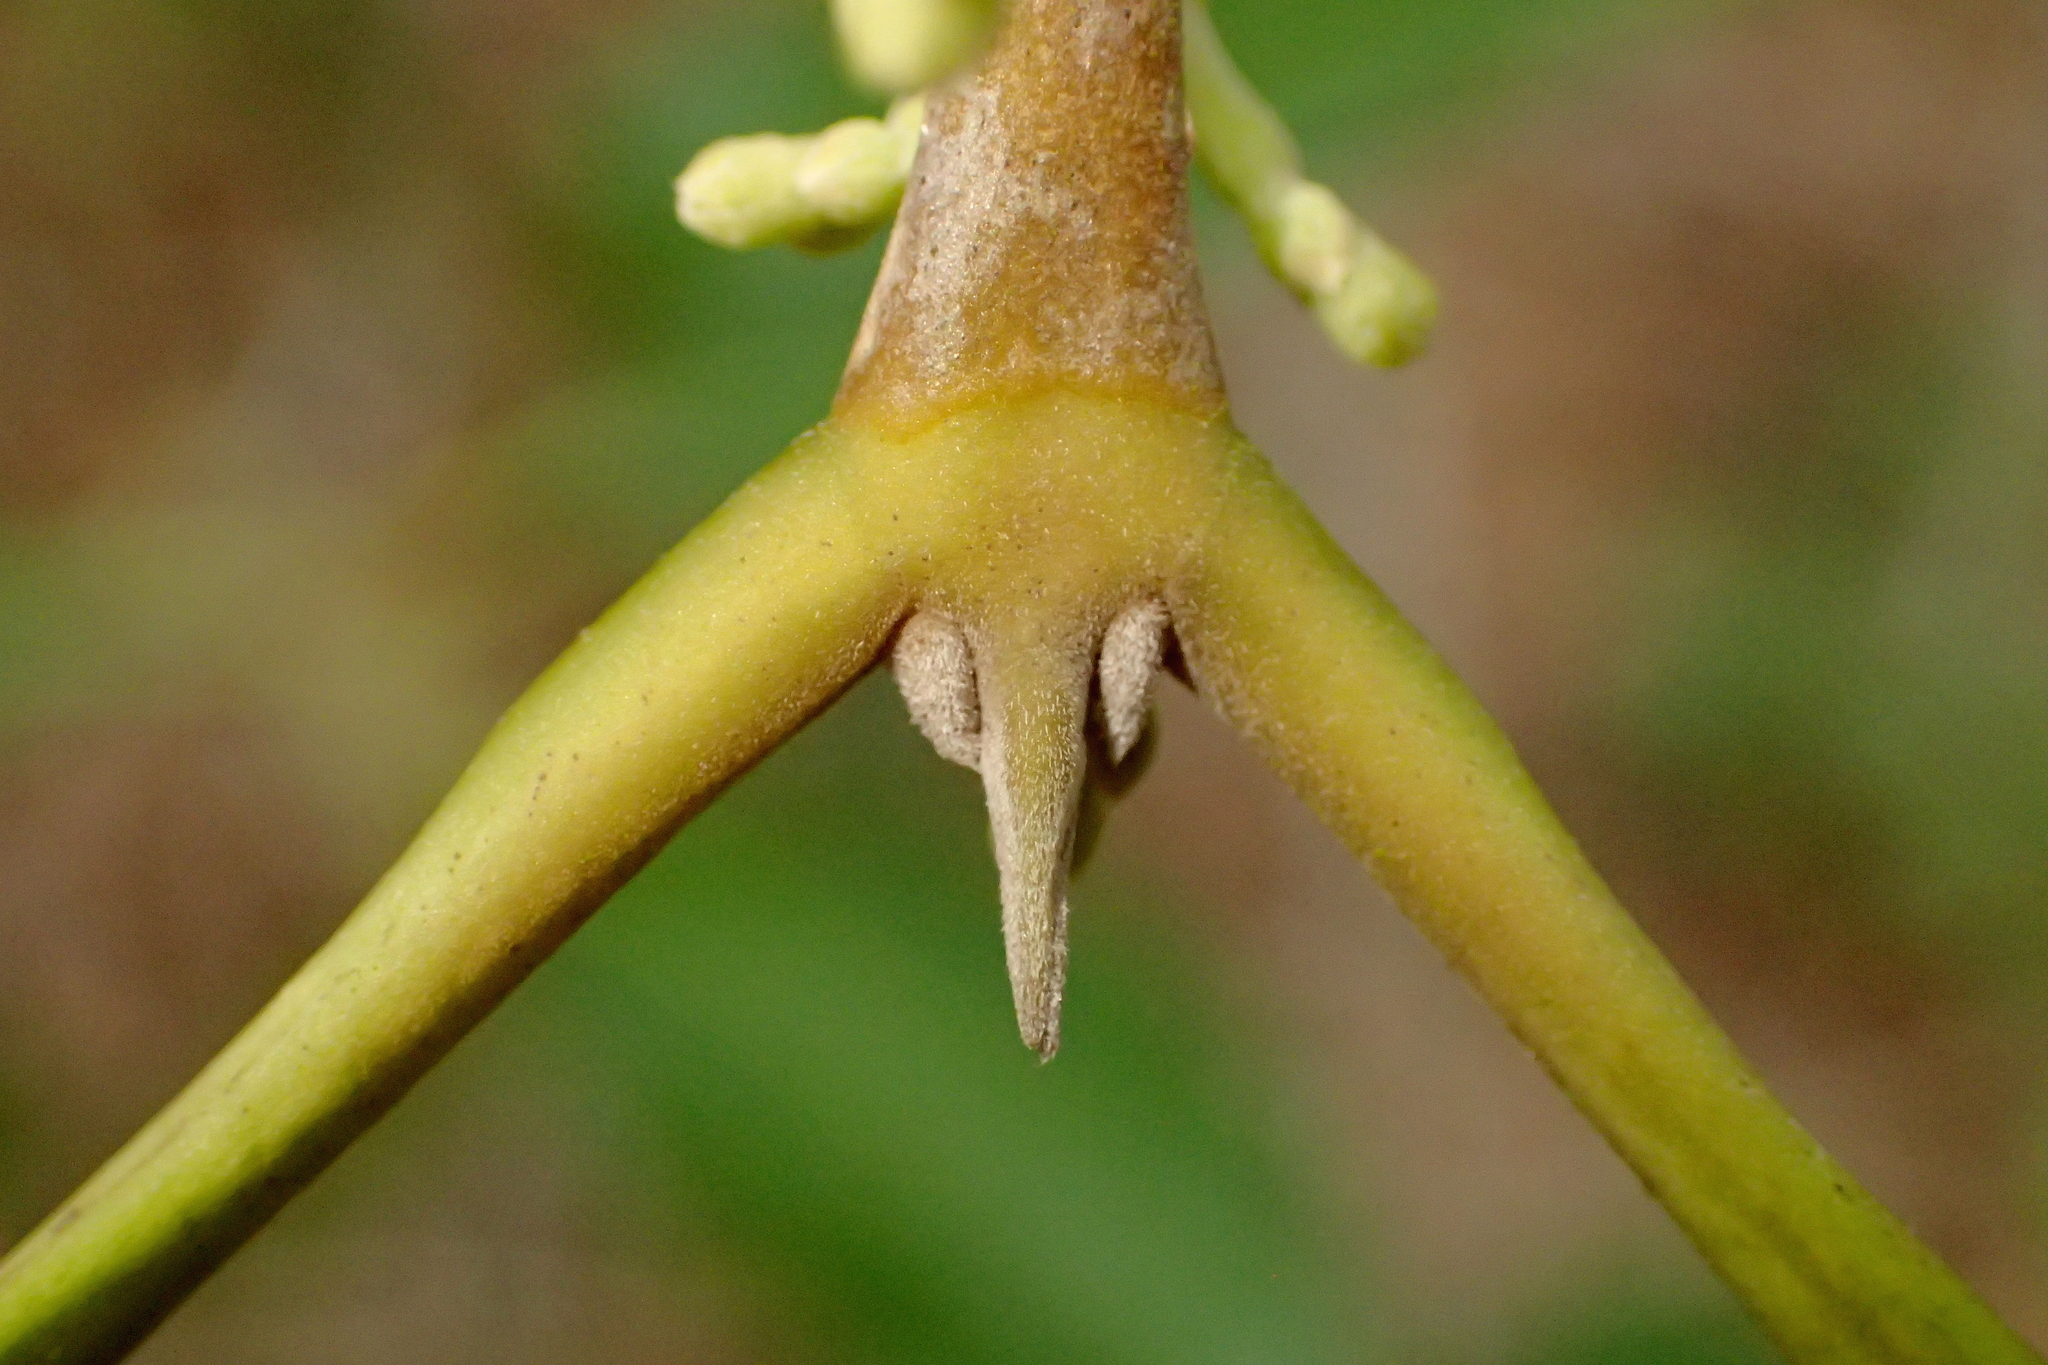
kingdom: Plantae
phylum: Tracheophyta
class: Magnoliopsida
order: Lamiales
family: Oleaceae
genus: Cartrema
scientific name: Cartrema americana
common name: Devilwood
